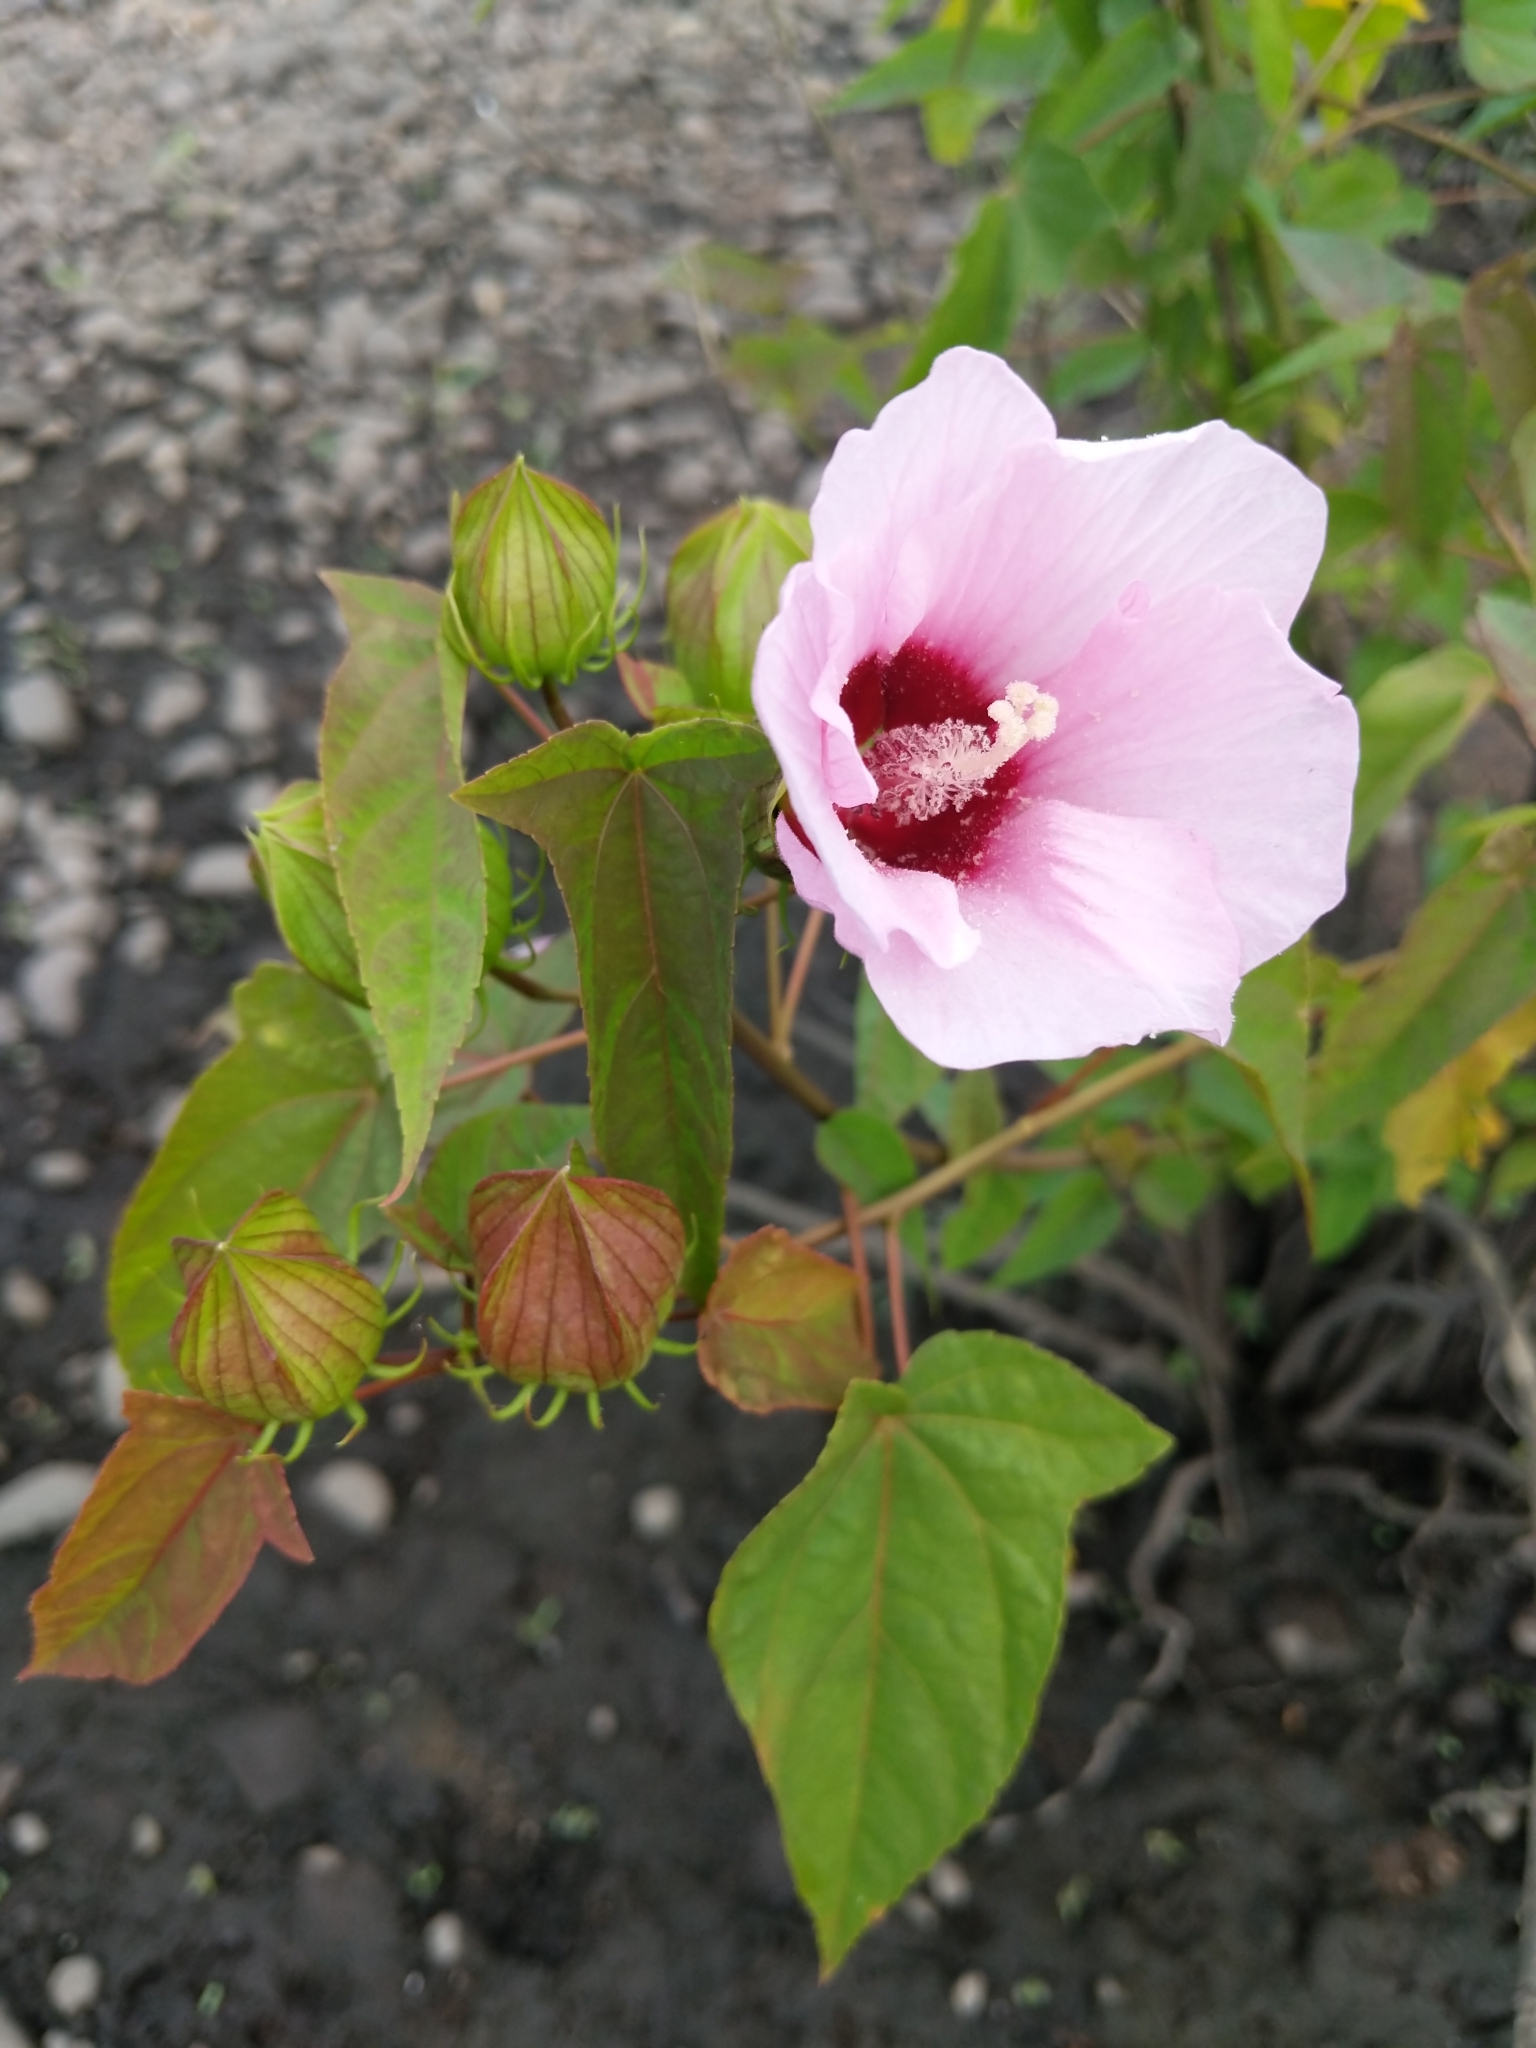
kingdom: Plantae
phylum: Tracheophyta
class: Magnoliopsida
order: Malvales
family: Malvaceae
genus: Hibiscus
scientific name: Hibiscus laevis
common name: Scarlet rose-mallow
